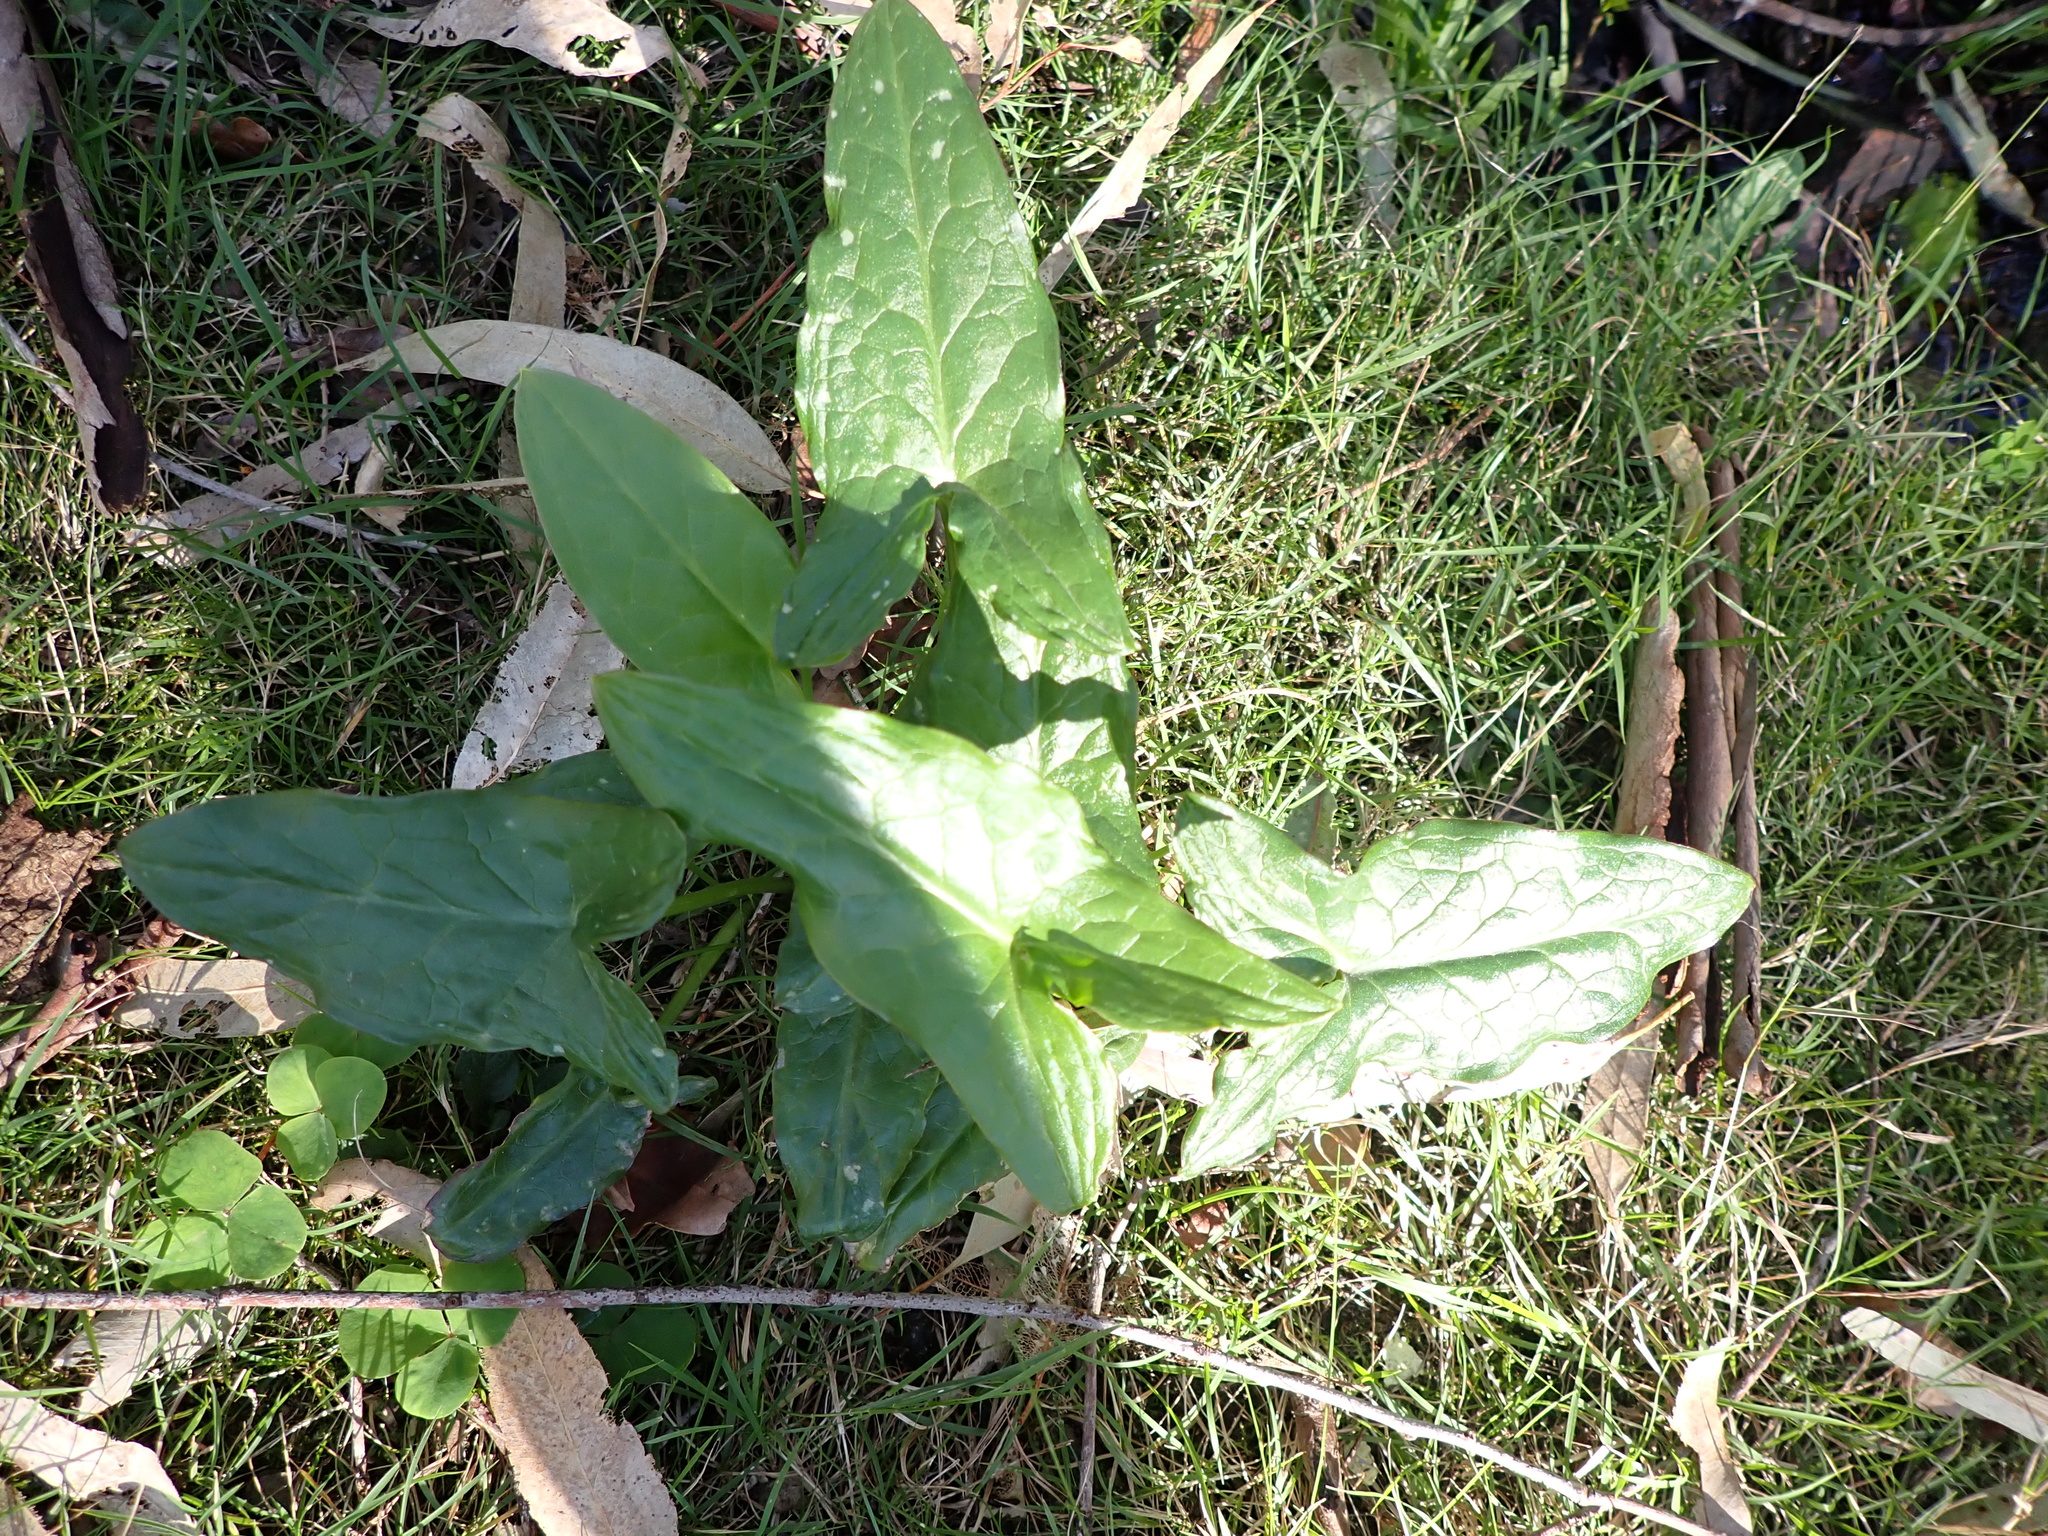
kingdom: Plantae
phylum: Tracheophyta
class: Liliopsida
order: Alismatales
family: Araceae
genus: Arum
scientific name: Arum italicum
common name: Italian lords-and-ladies
